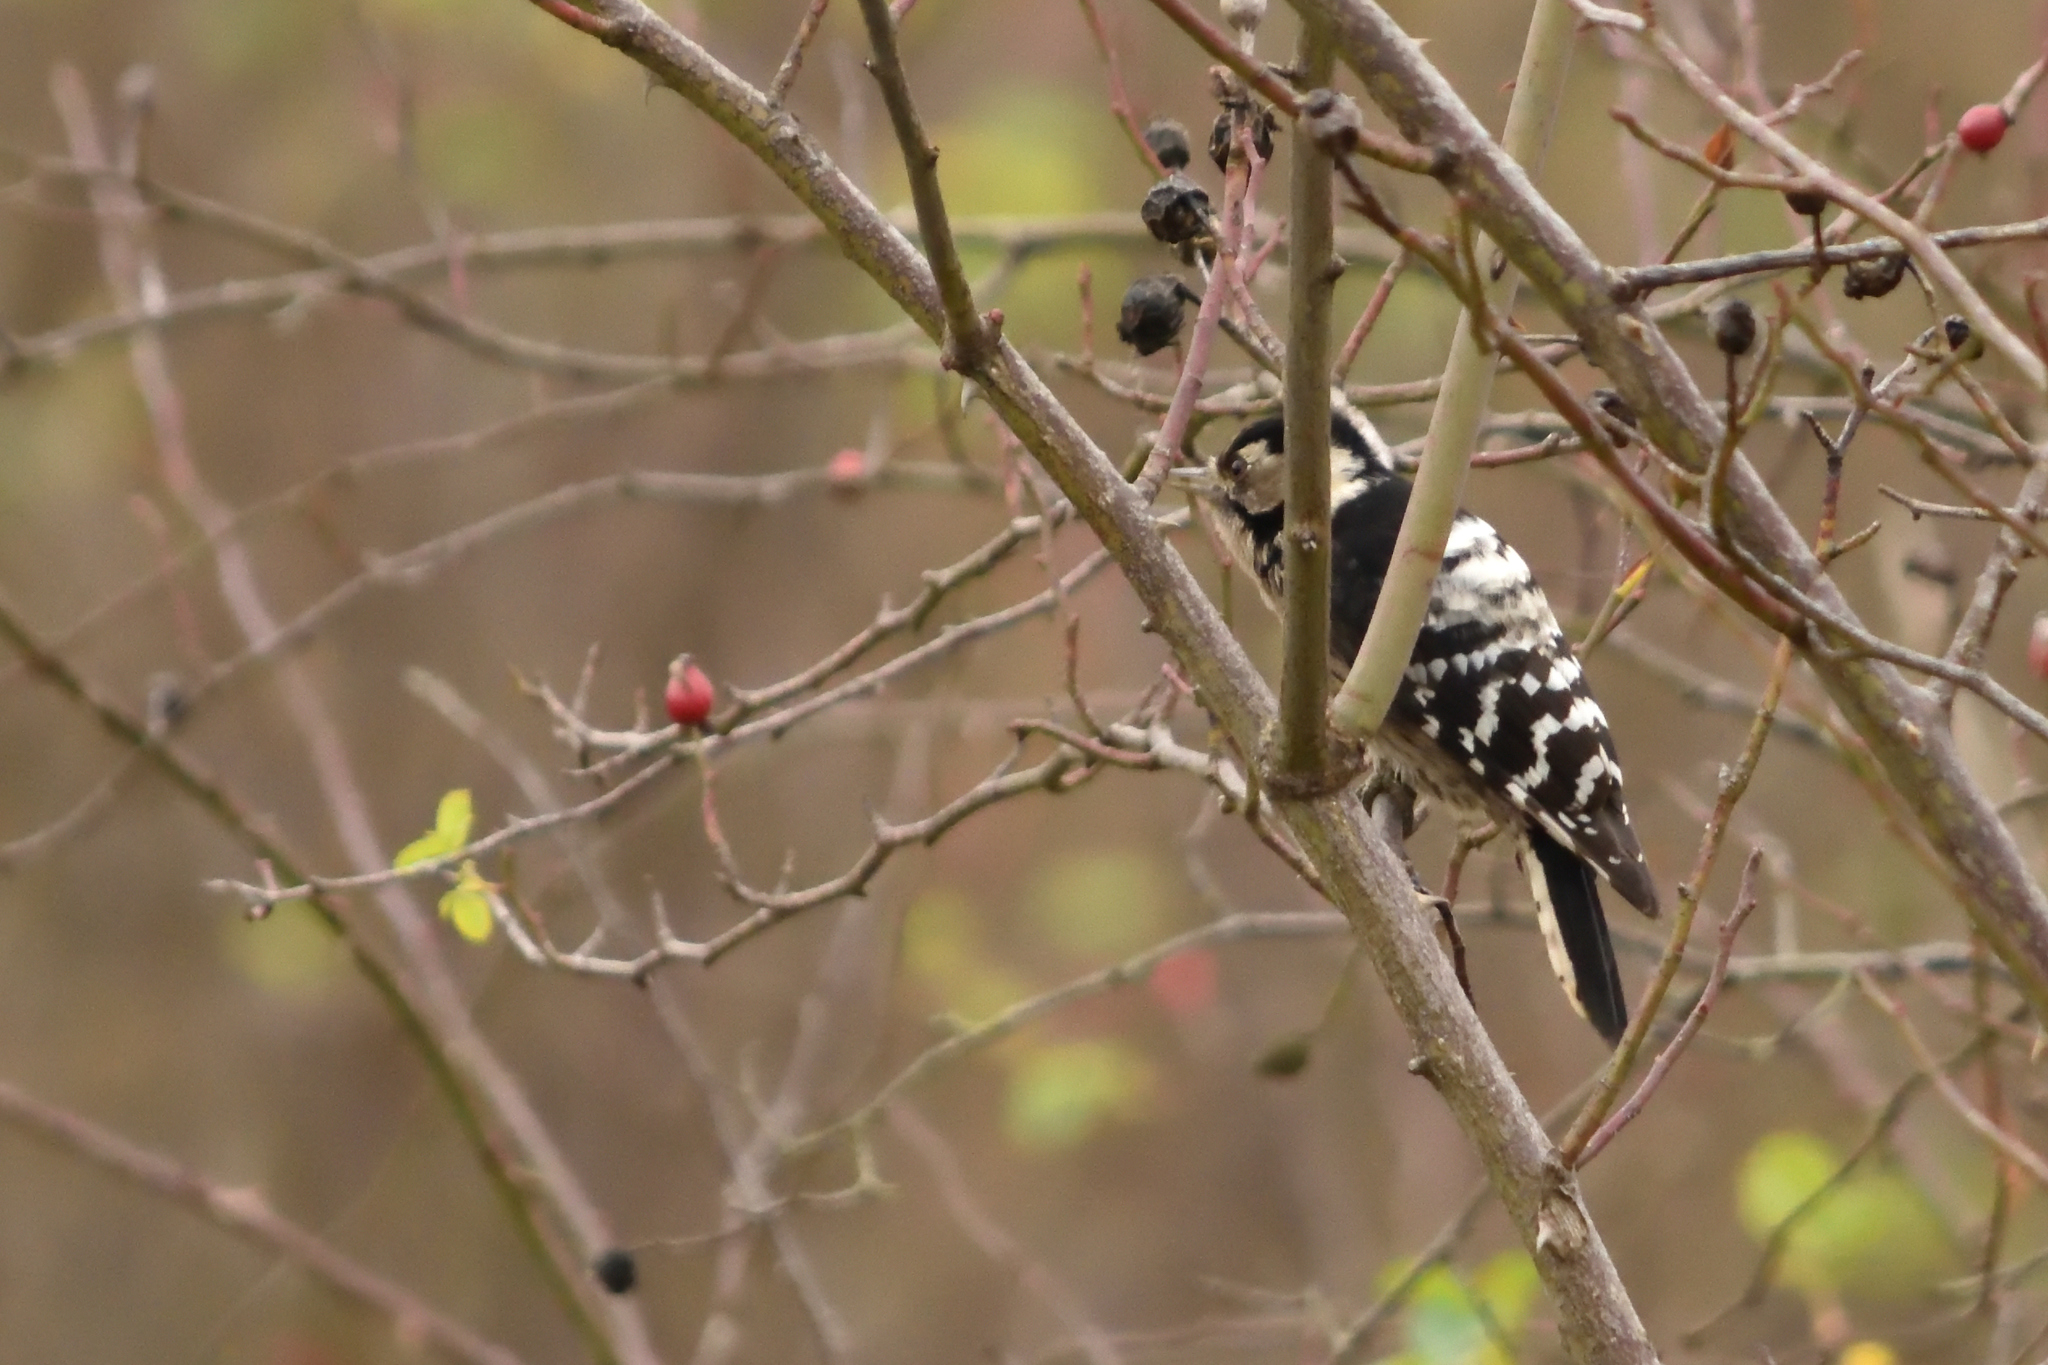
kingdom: Animalia
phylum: Chordata
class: Aves
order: Piciformes
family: Picidae
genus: Dryobates
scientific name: Dryobates minor
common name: Lesser spotted woodpecker
